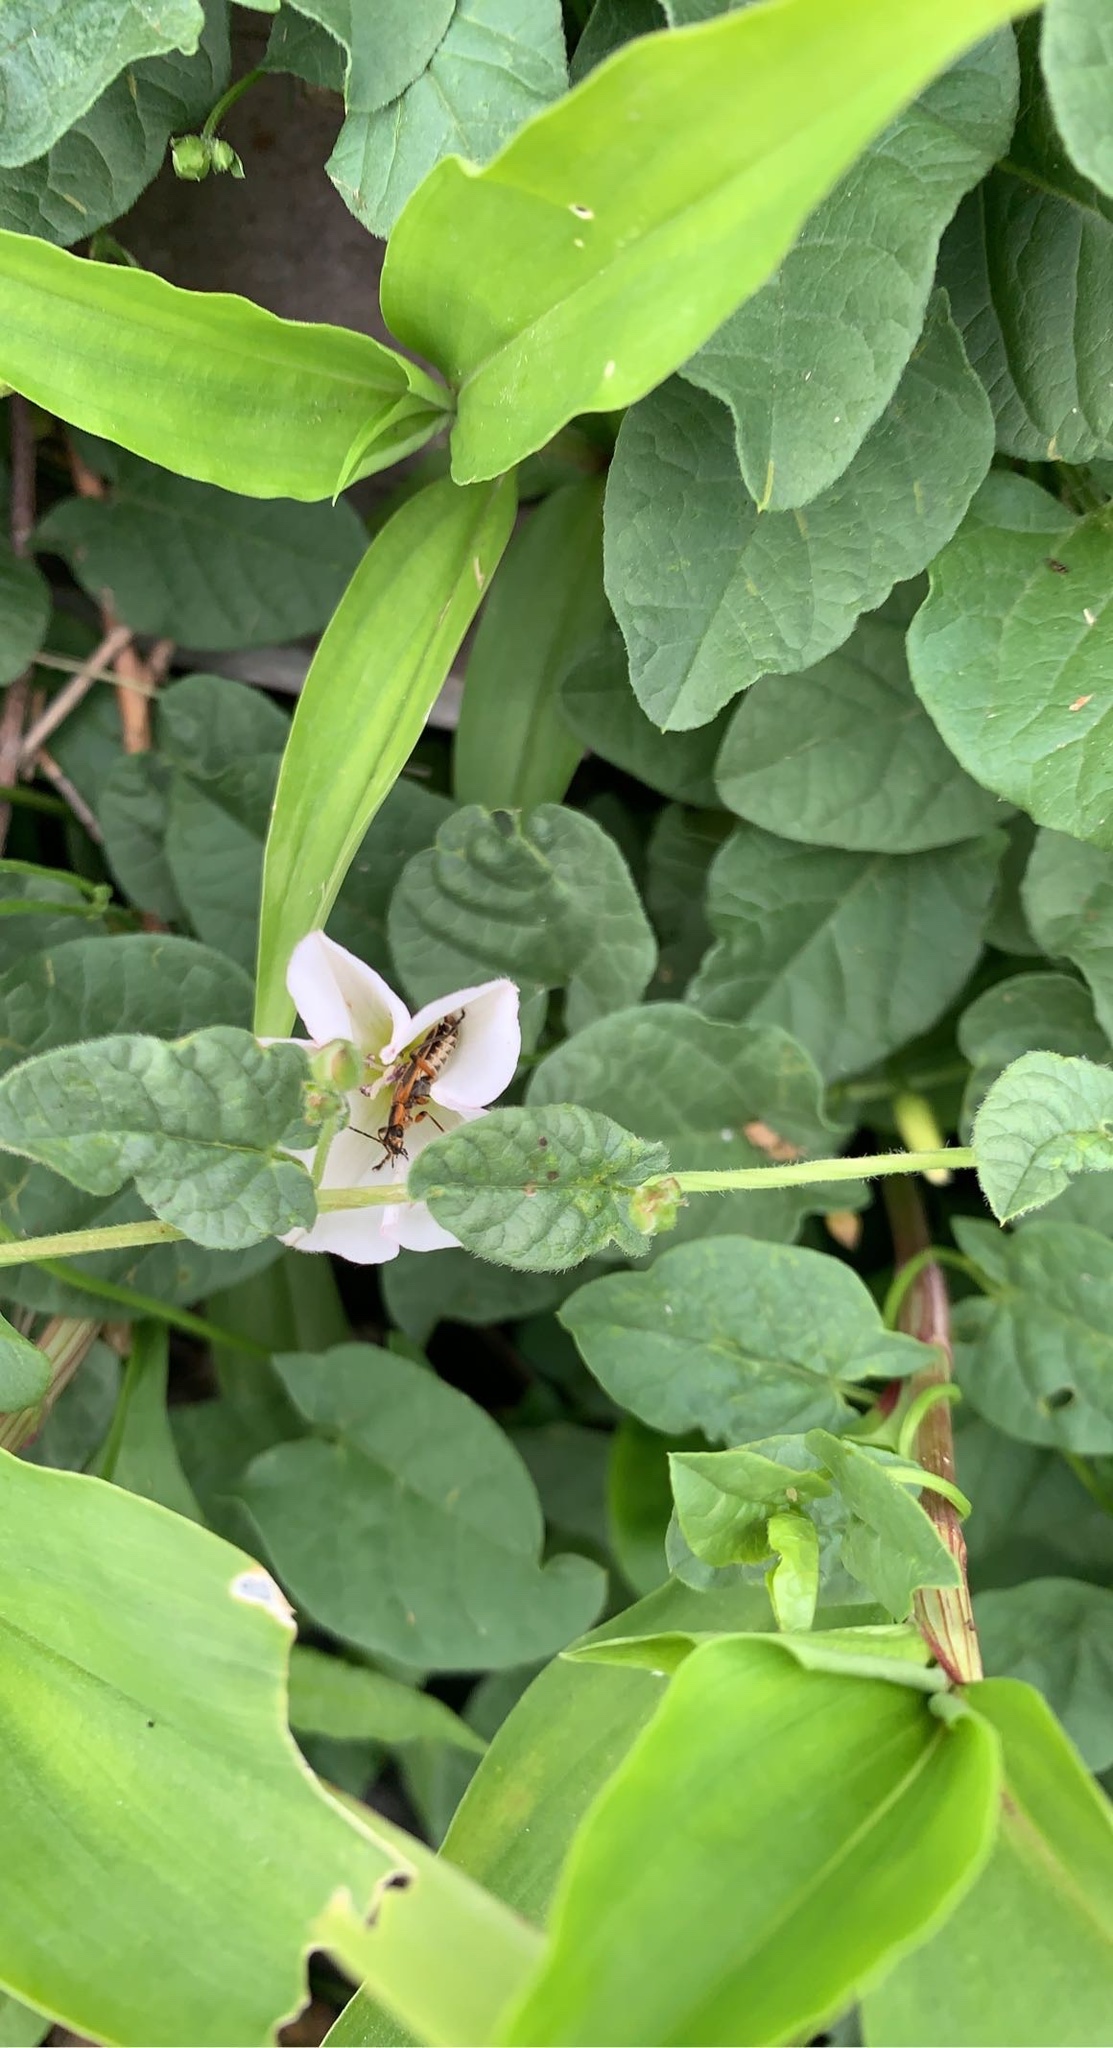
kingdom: Plantae
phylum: Tracheophyta
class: Magnoliopsida
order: Solanales
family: Convolvulaceae
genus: Convolvulus
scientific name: Convolvulus arvensis
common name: Field bindweed
